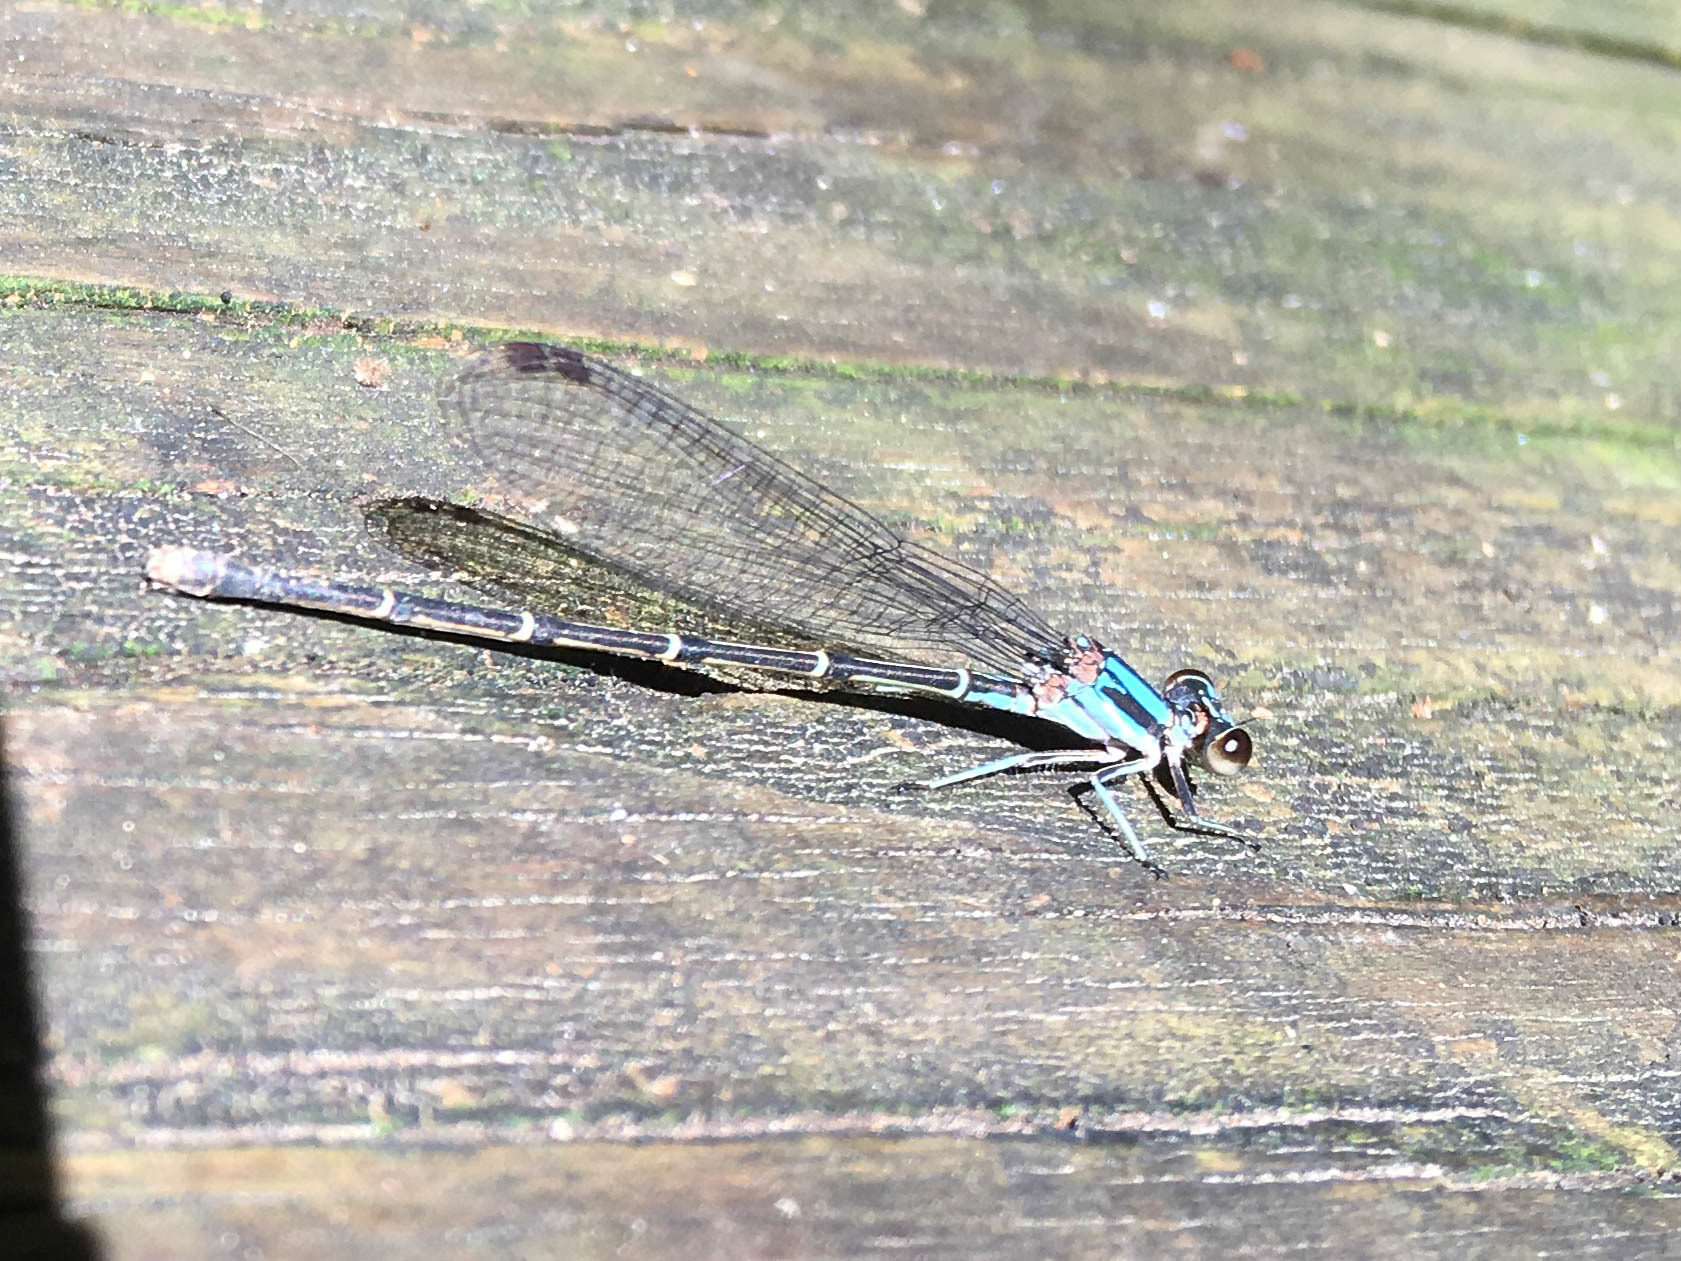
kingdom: Animalia
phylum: Arthropoda
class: Insecta
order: Odonata
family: Coenagrionidae
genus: Argia
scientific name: Argia tibialis
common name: Blue-tipped dancer
